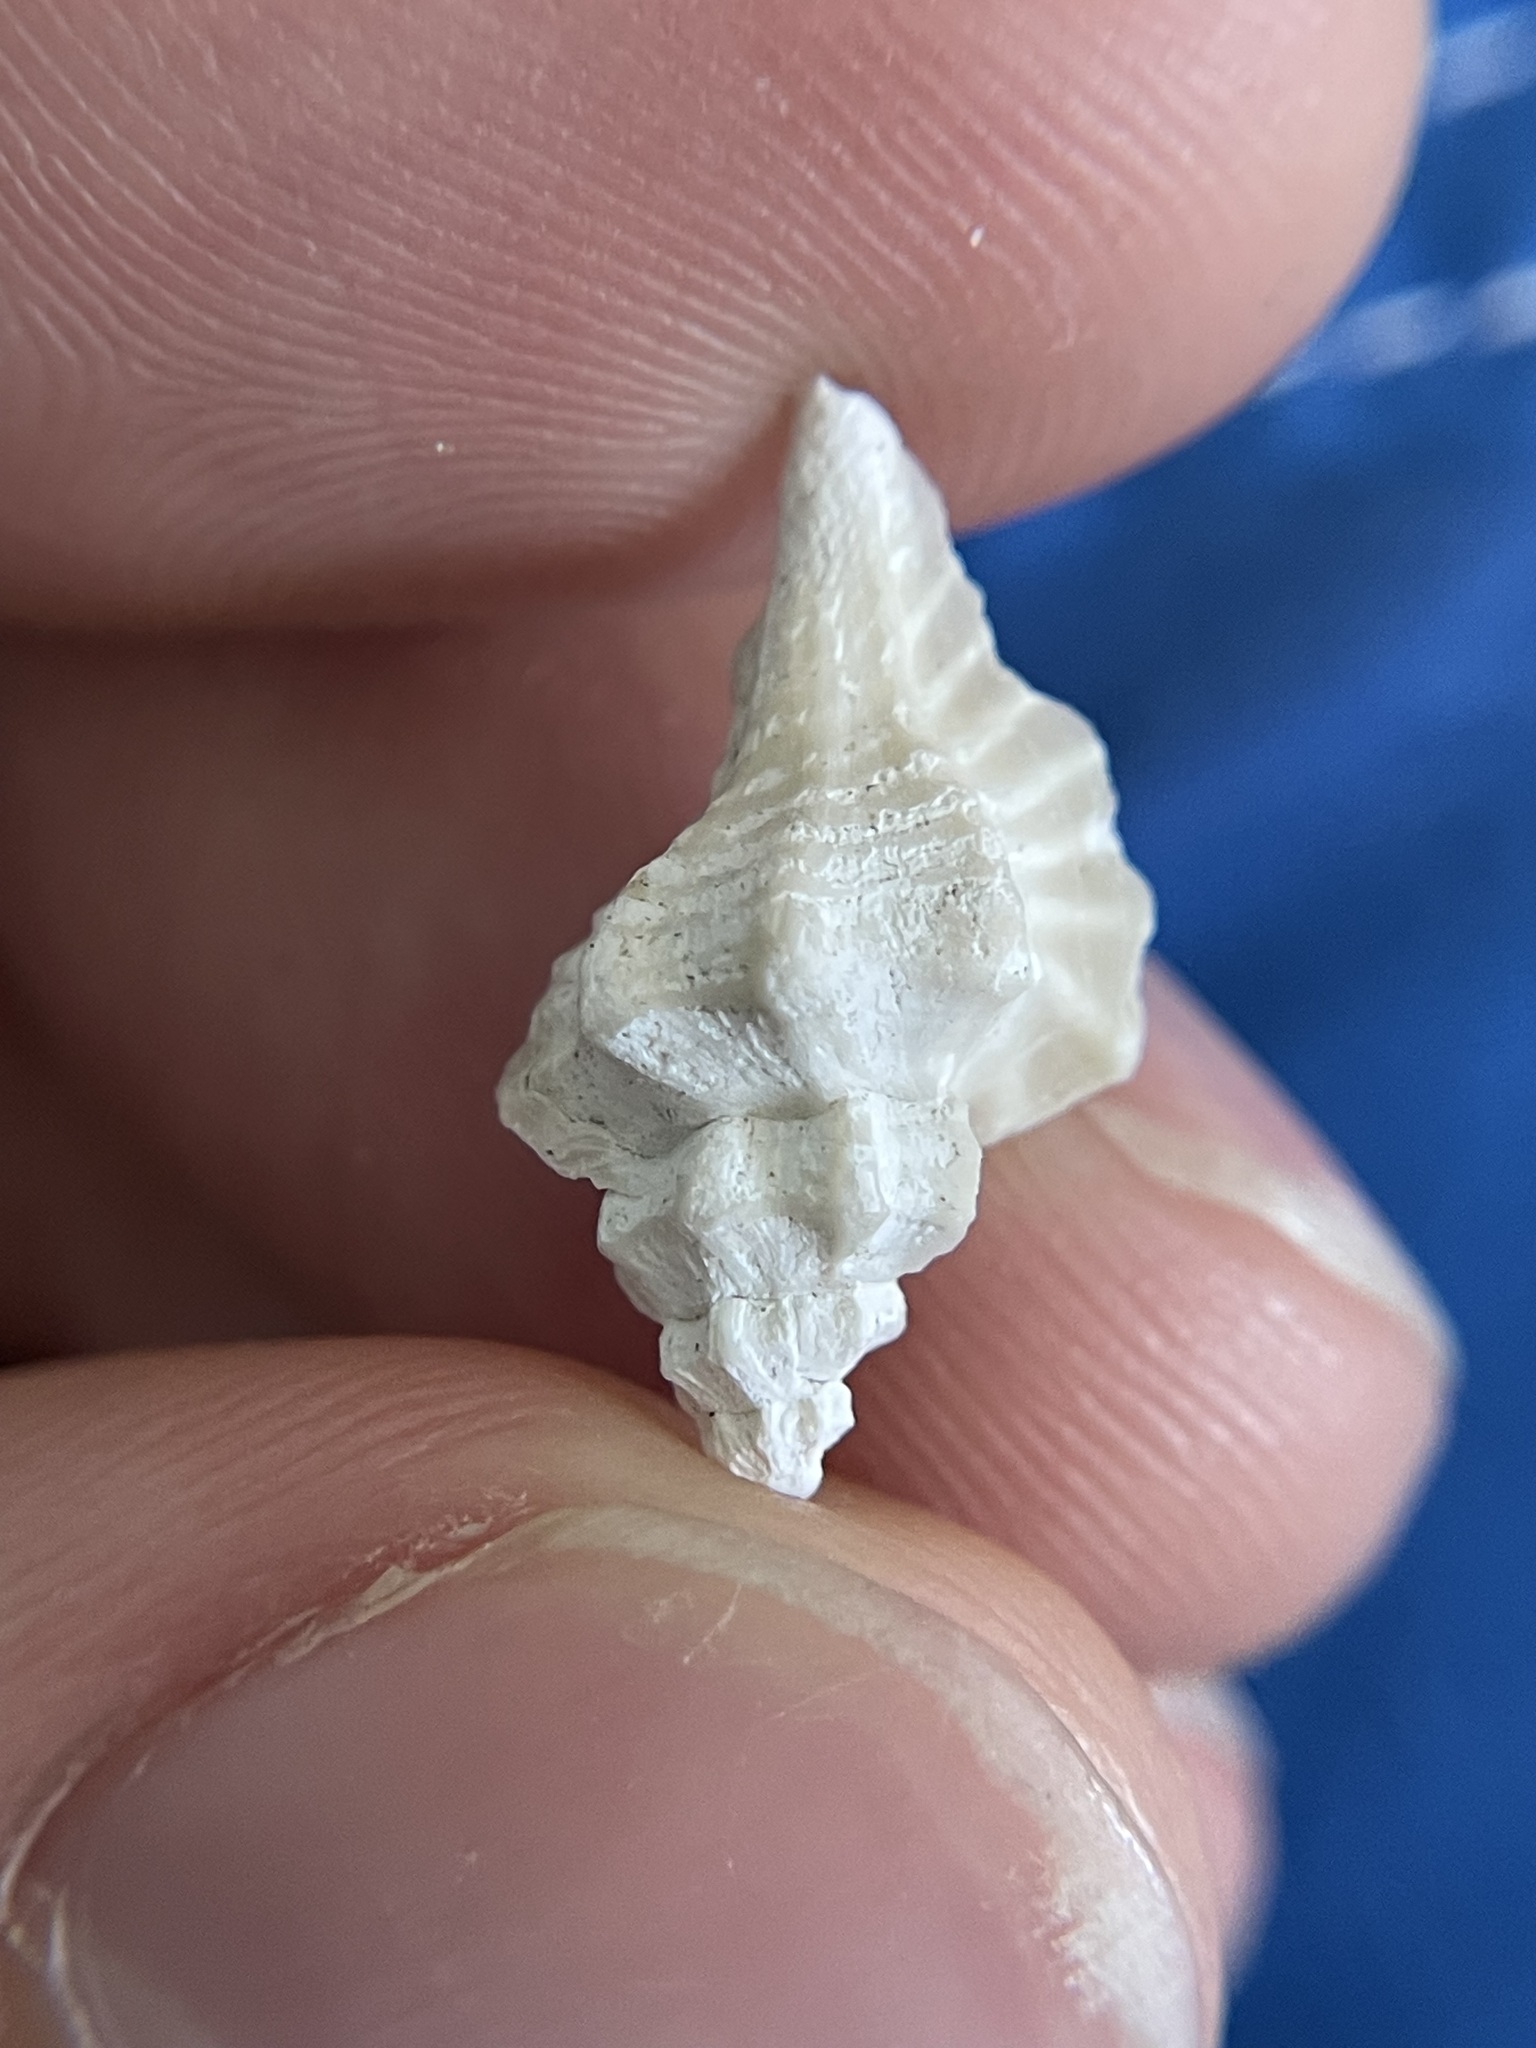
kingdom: Animalia
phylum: Mollusca
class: Gastropoda
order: Neogastropoda
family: Muricidae
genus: Eupleura
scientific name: Eupleura sulcidentata
